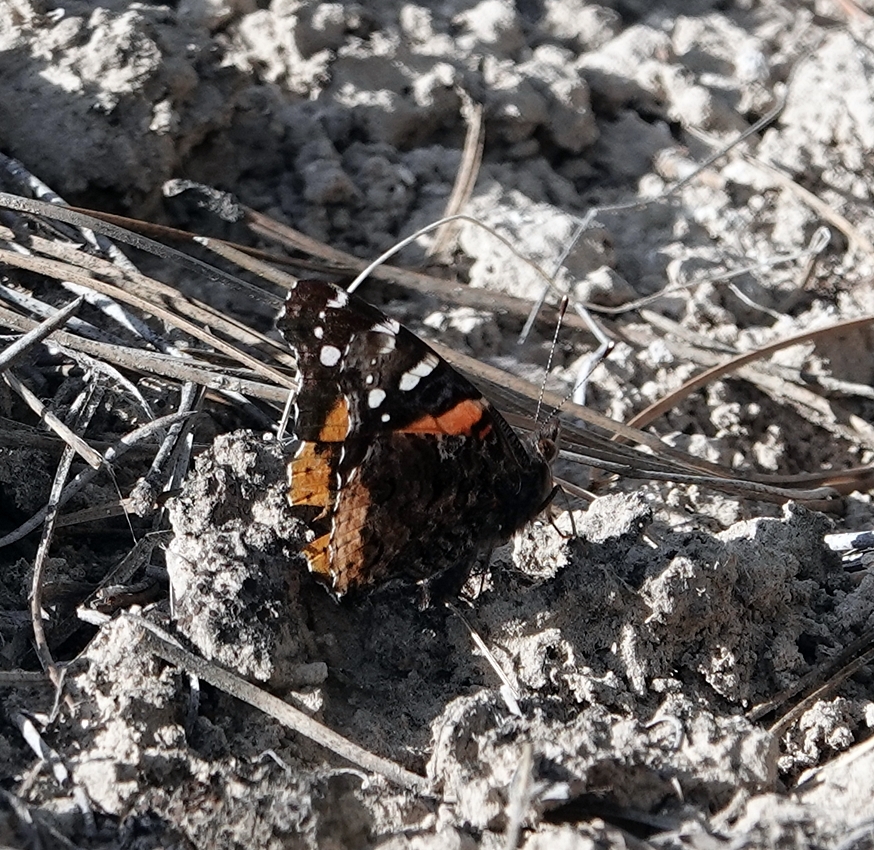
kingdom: Animalia
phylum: Arthropoda
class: Insecta
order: Lepidoptera
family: Nymphalidae
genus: Vanessa
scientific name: Vanessa atalanta
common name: Red admiral
